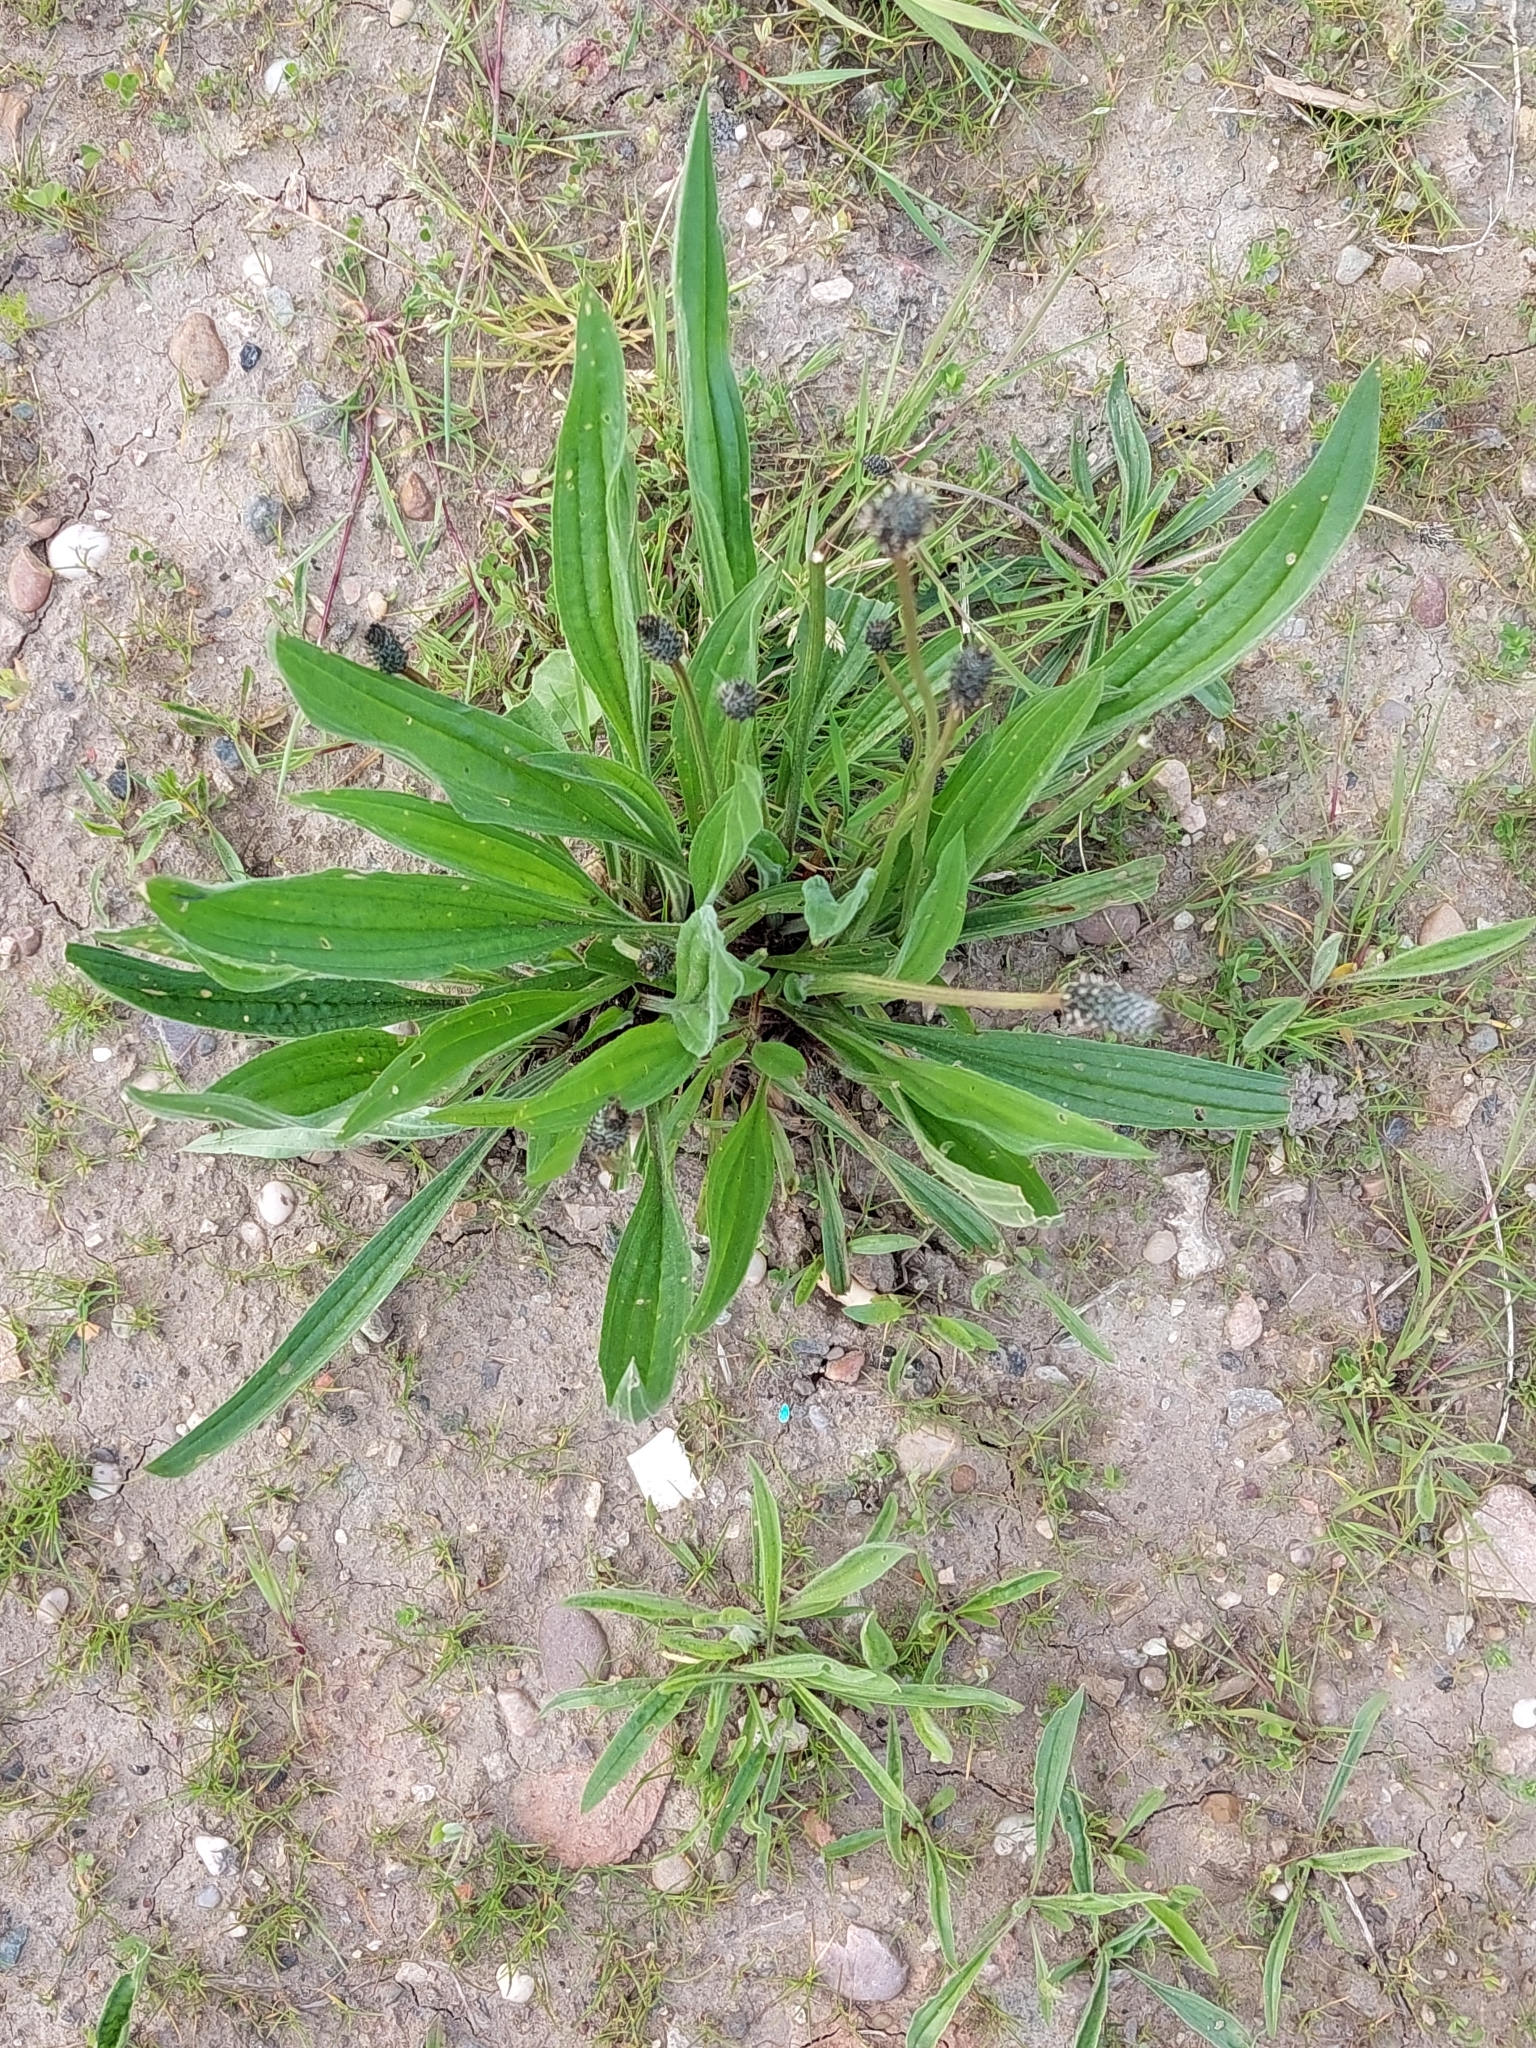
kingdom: Plantae
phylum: Tracheophyta
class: Magnoliopsida
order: Lamiales
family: Plantaginaceae
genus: Plantago
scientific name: Plantago lanceolata
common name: Ribwort plantain
